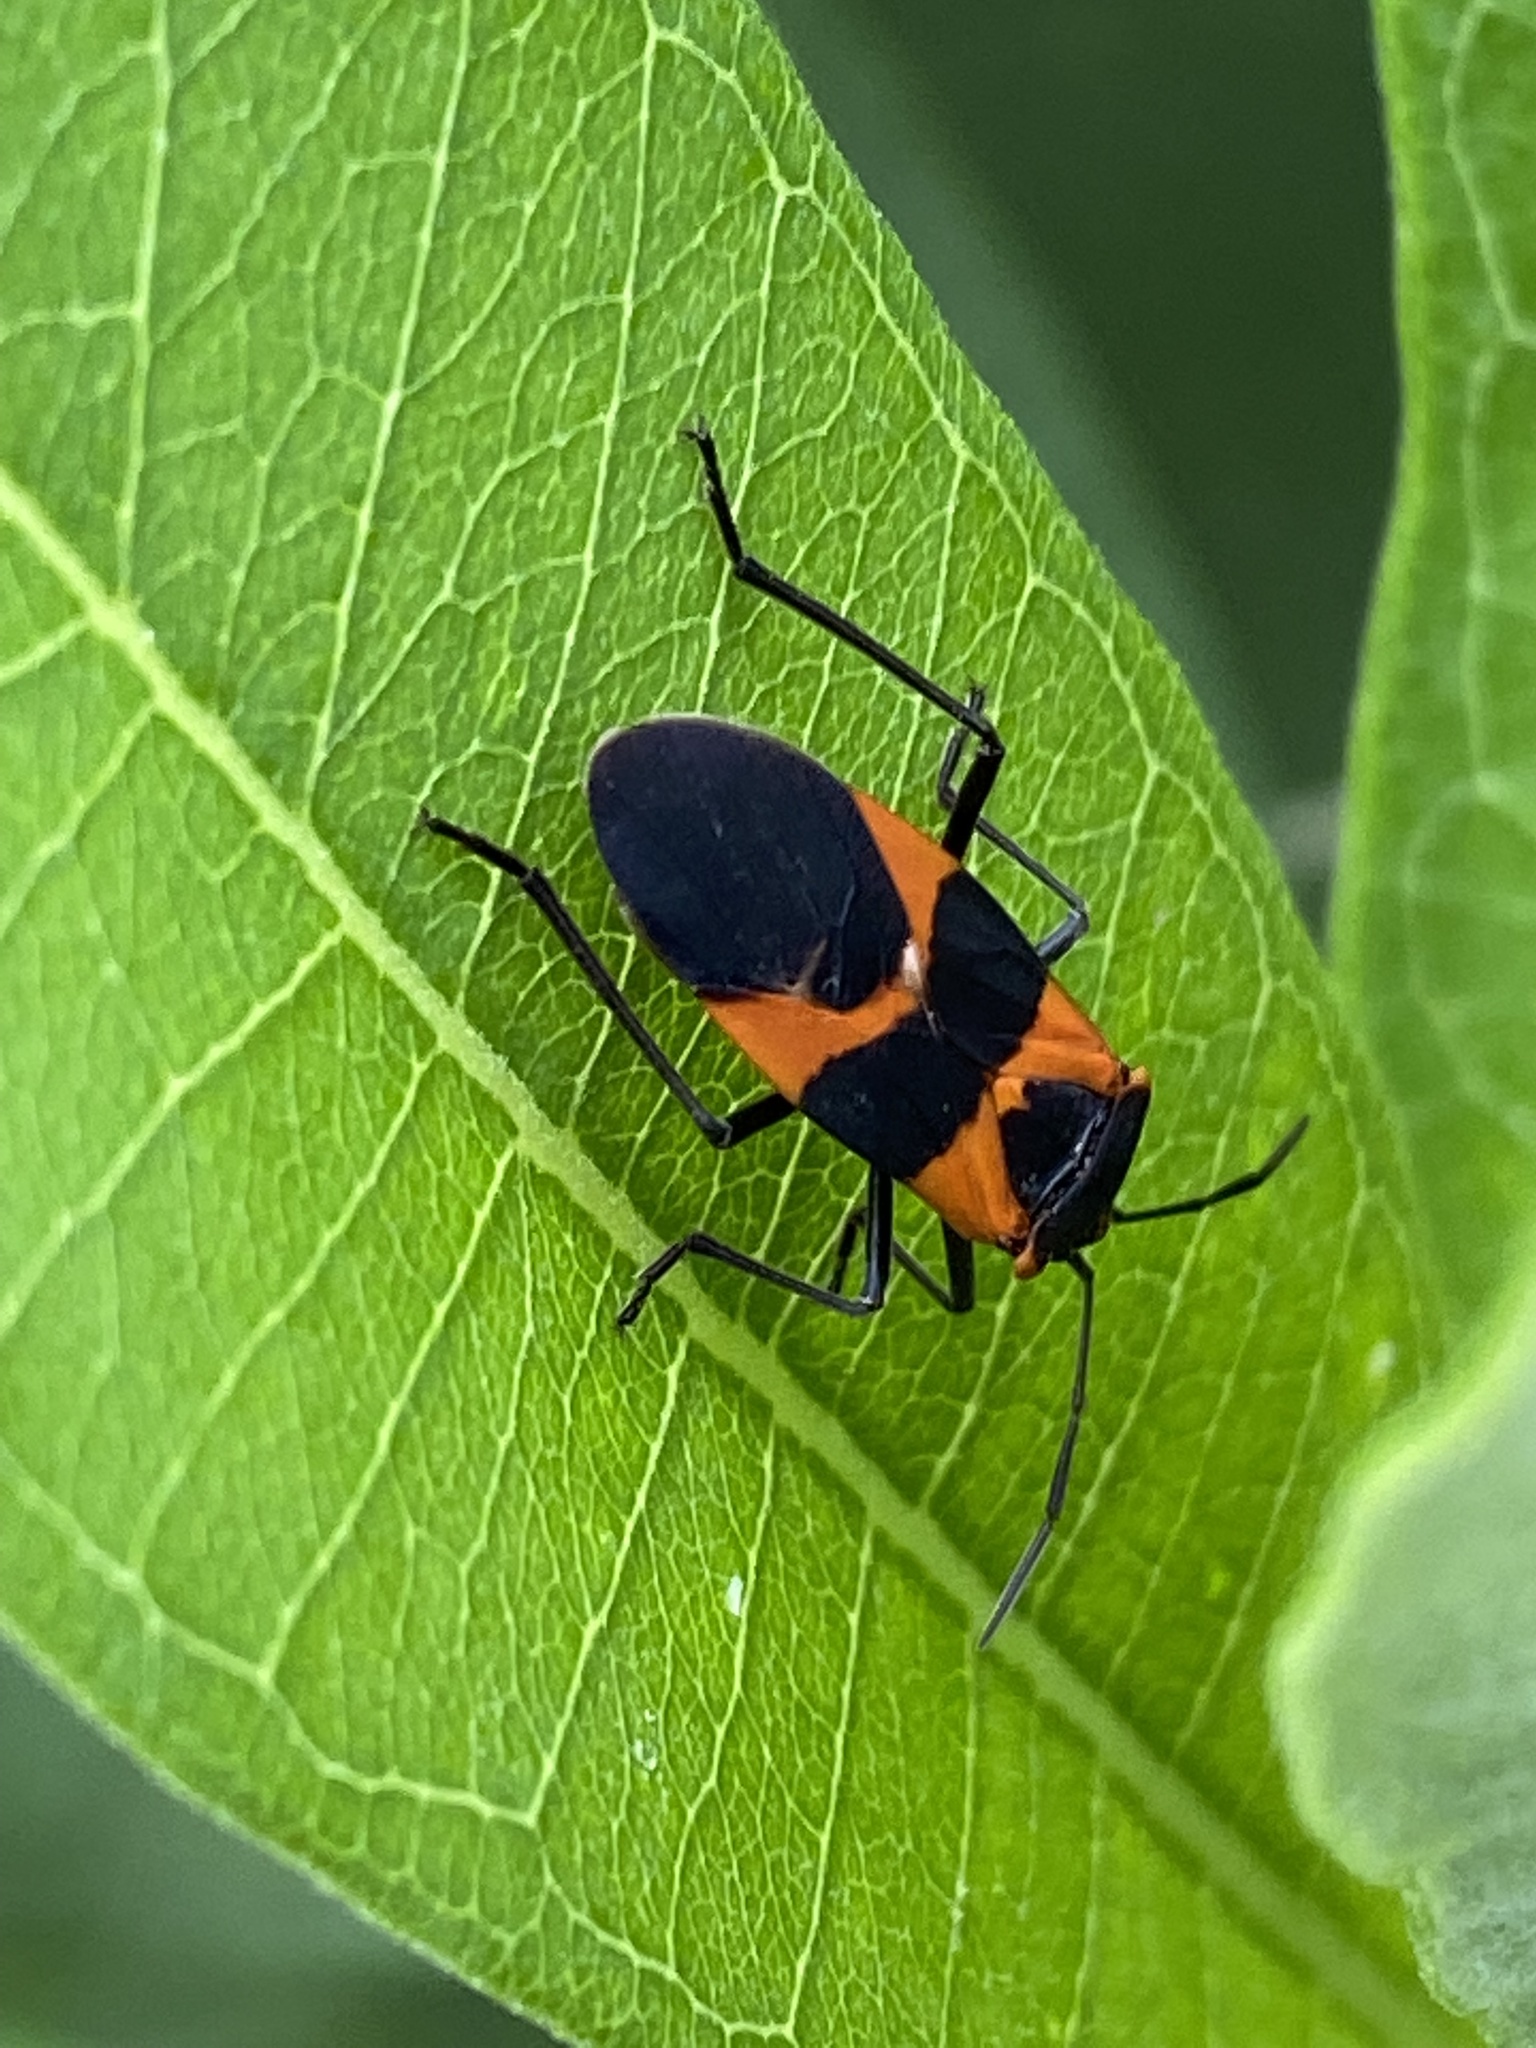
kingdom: Animalia
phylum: Arthropoda
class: Insecta
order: Hemiptera
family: Lygaeidae
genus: Oncopeltus
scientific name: Oncopeltus fasciatus
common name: Large milkweed bug
